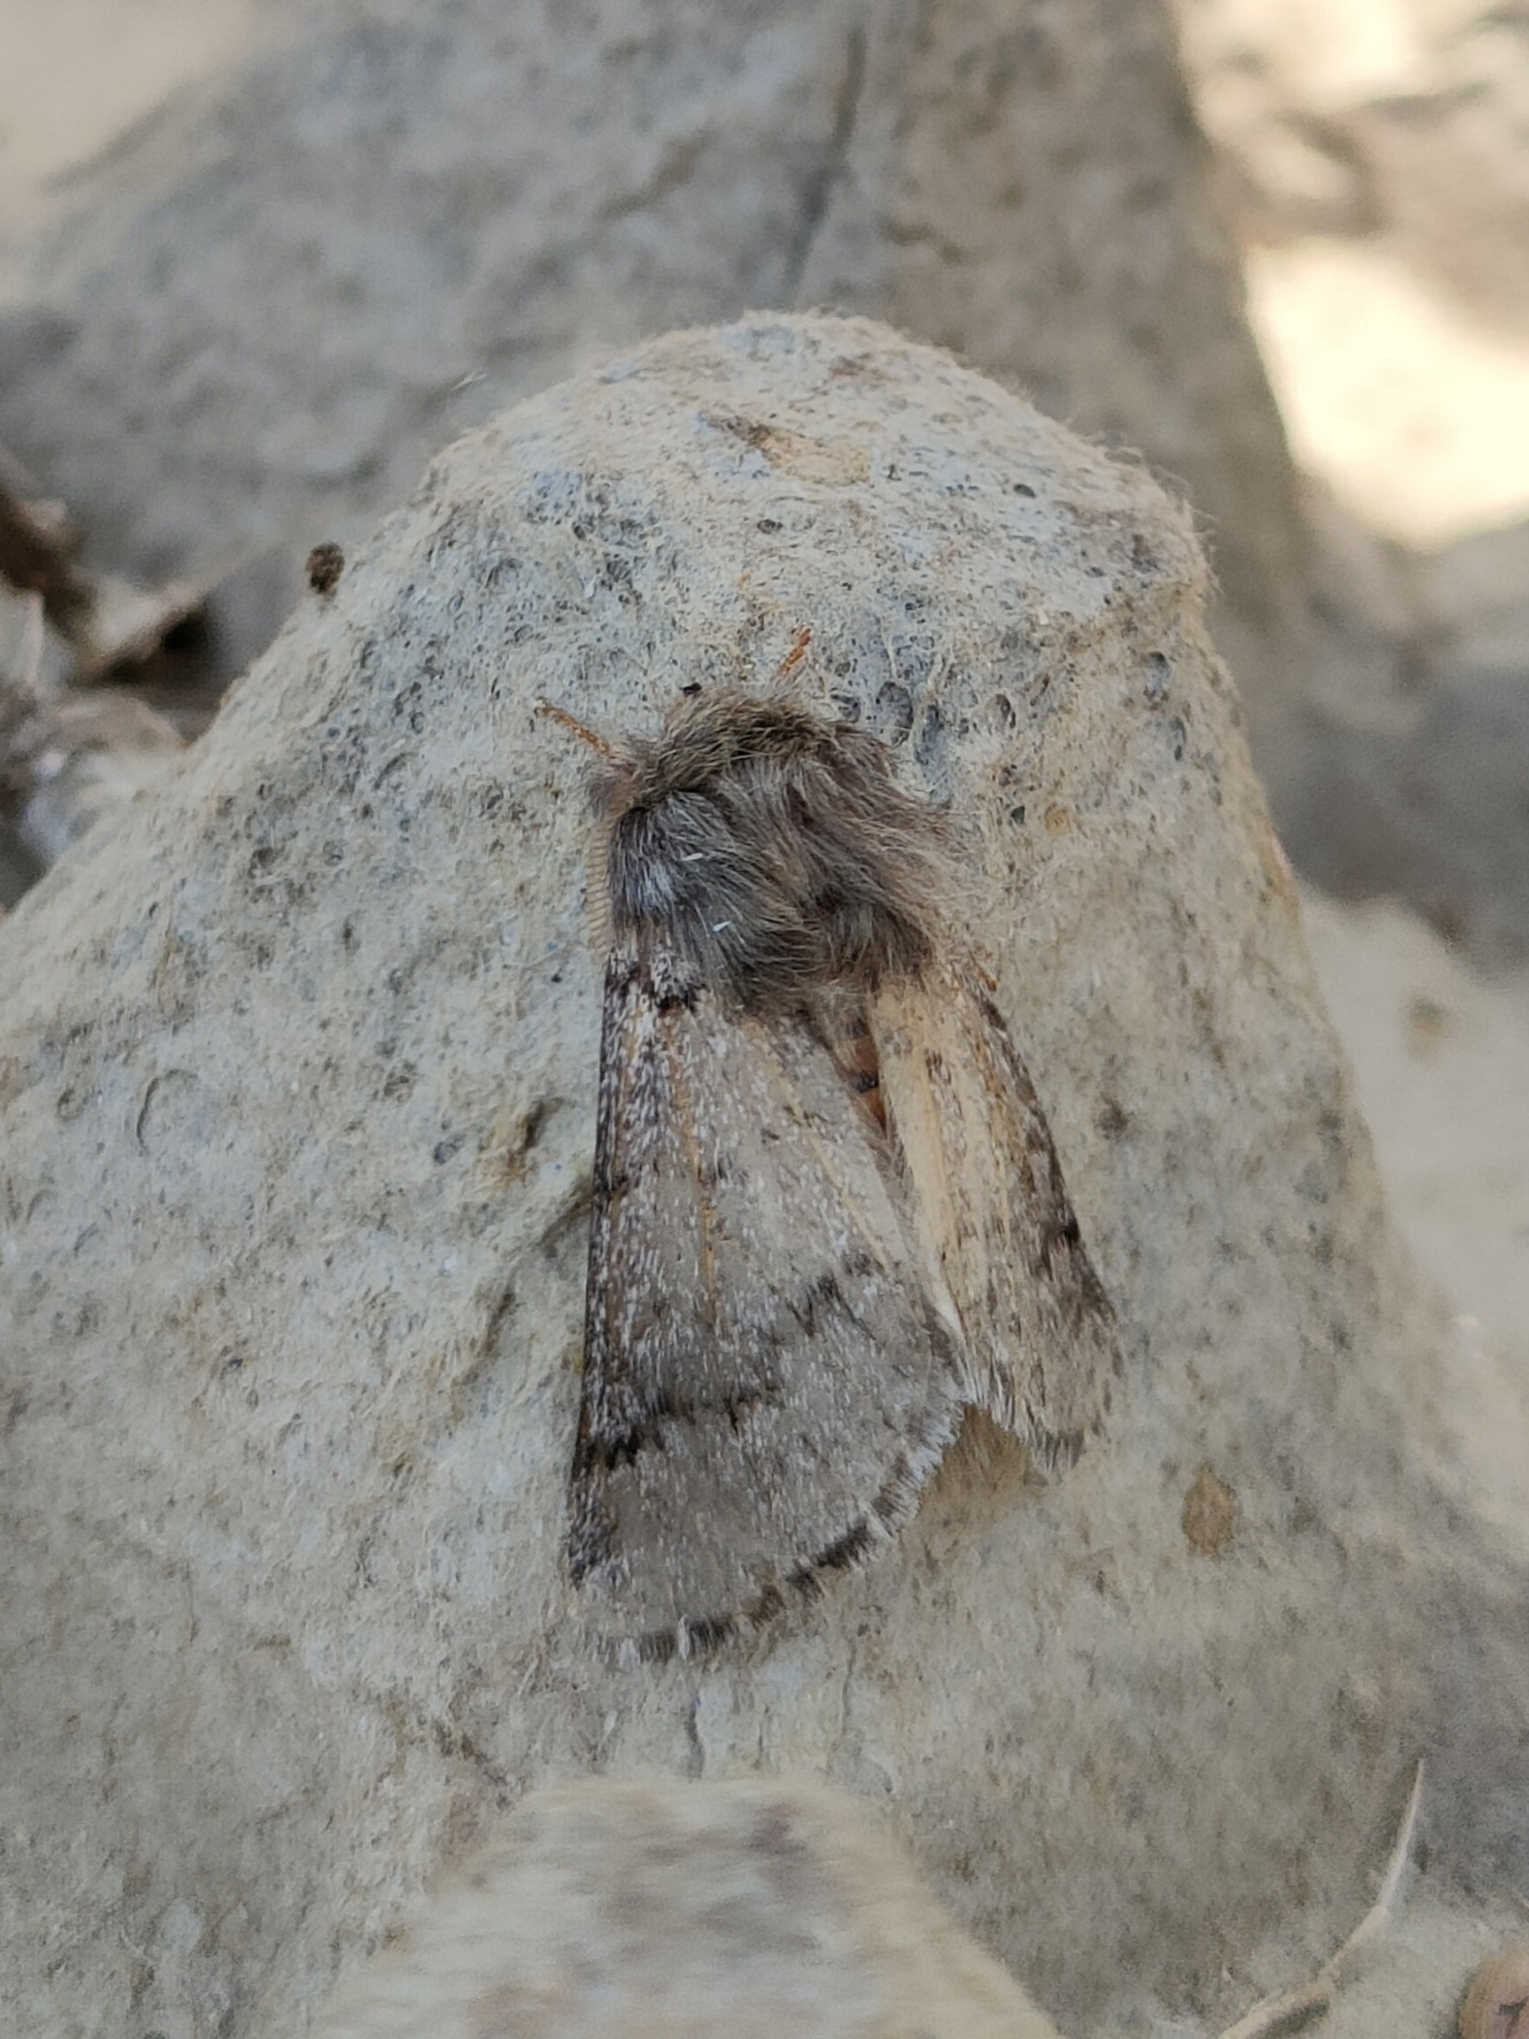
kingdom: Animalia
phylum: Arthropoda
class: Insecta
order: Lepidoptera
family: Notodontidae
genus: Thaumetopoea
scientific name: Thaumetopoea pityocampa
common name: Pine processionary
